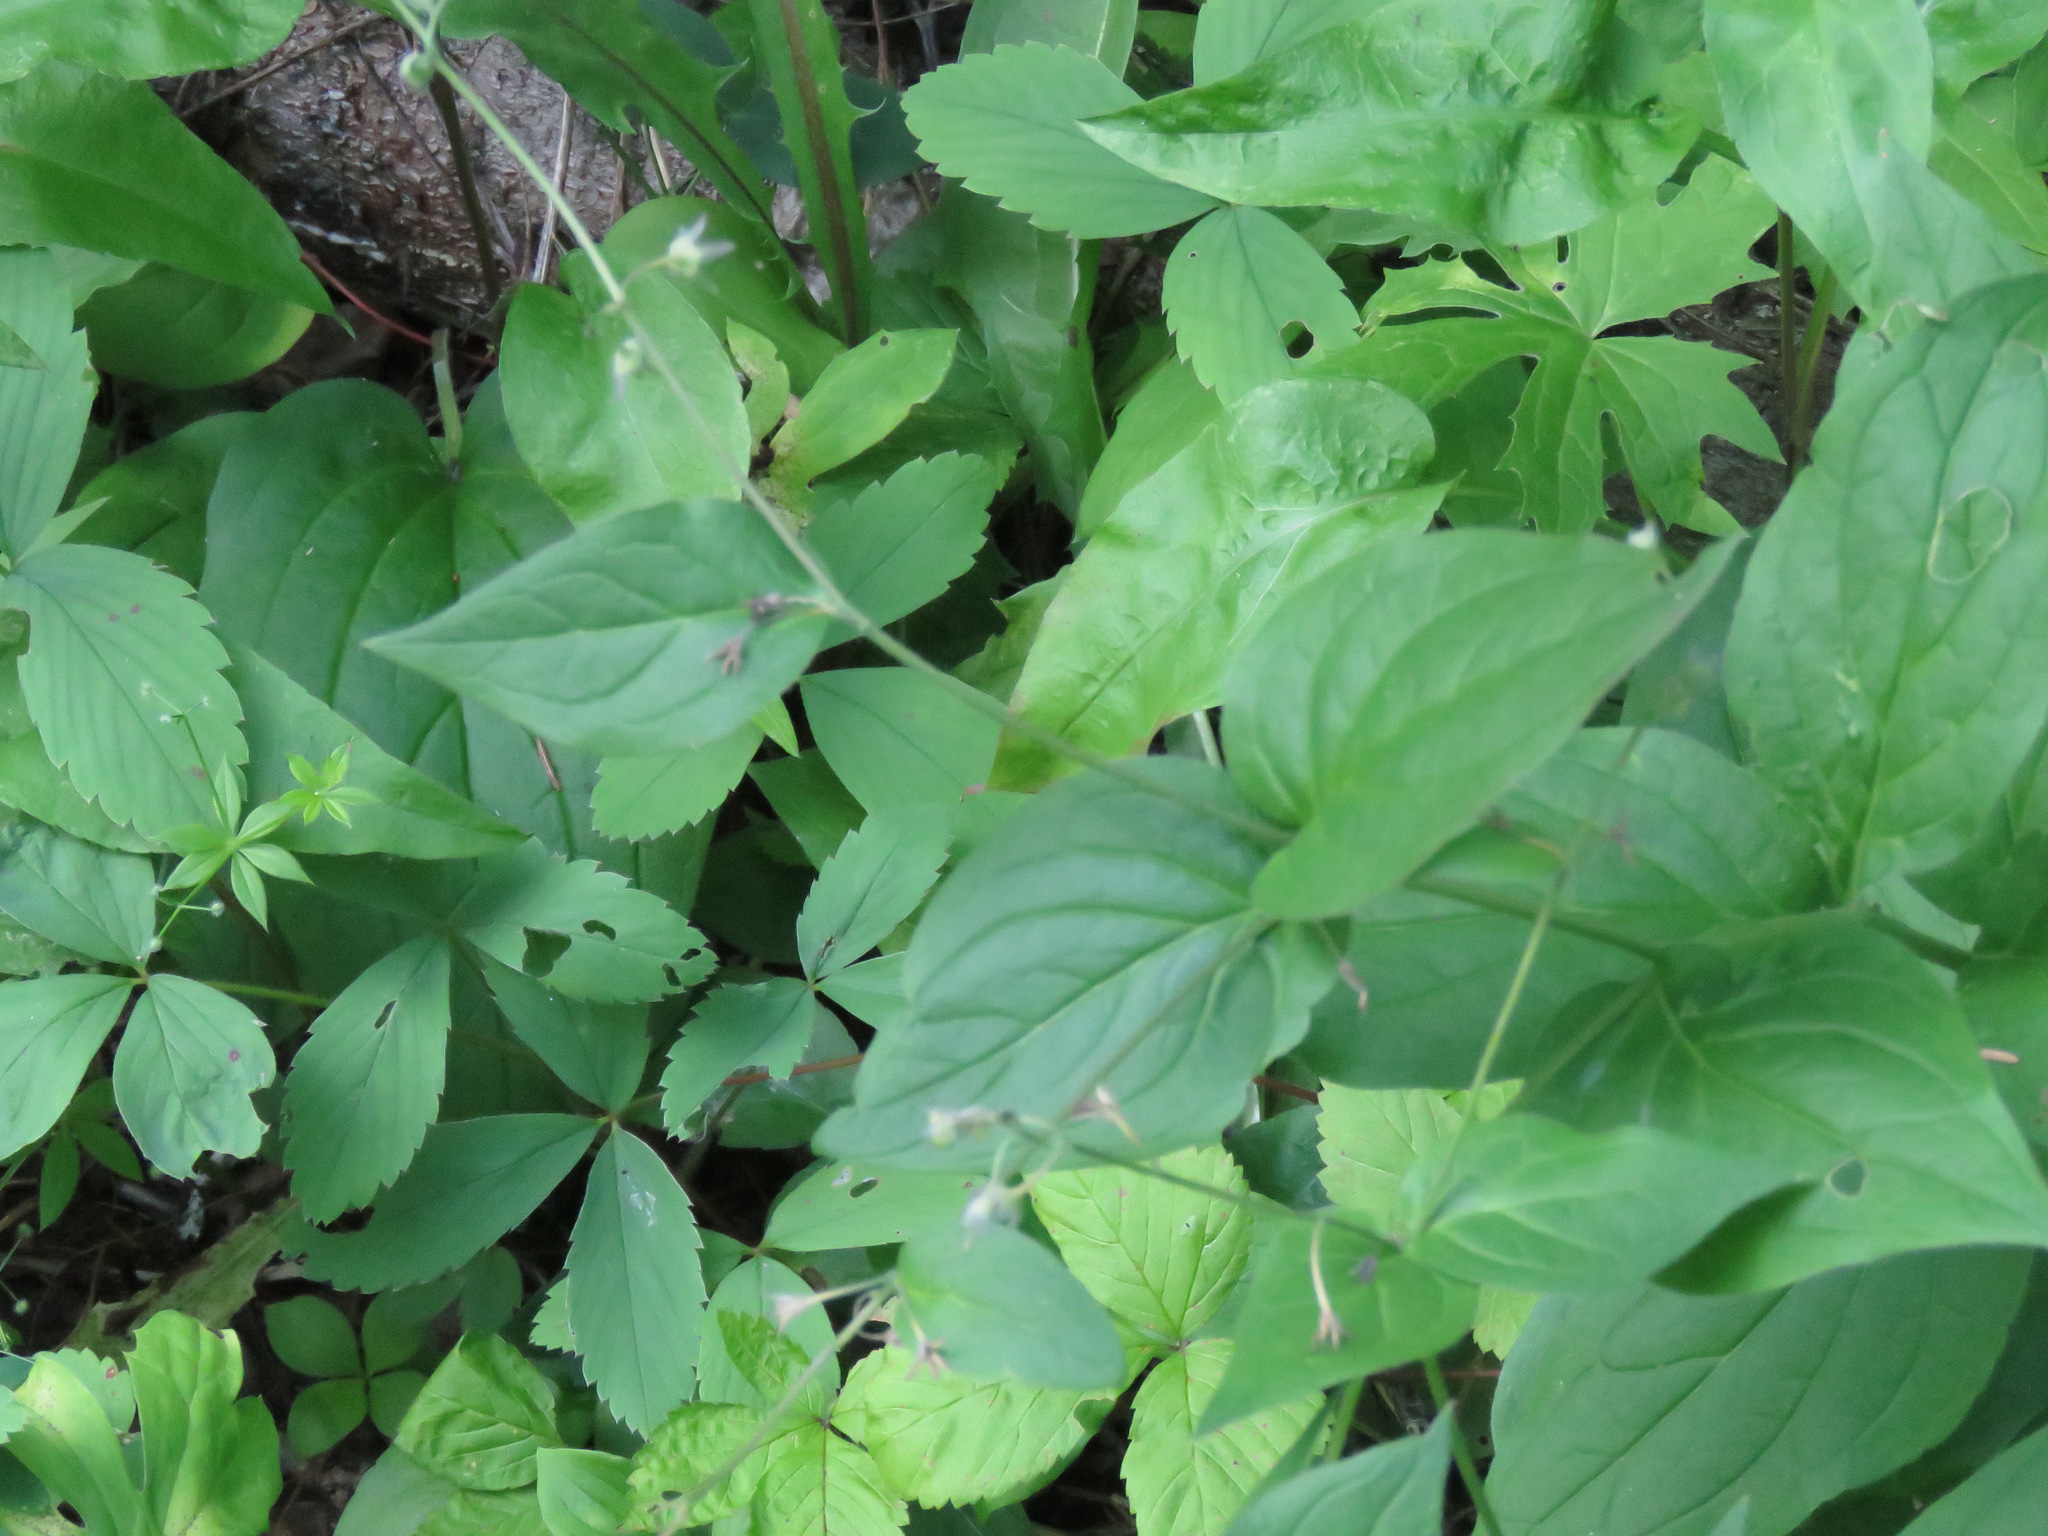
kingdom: Plantae
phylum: Tracheophyta
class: Magnoliopsida
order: Boraginales
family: Boraginaceae
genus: Mertensia
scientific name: Mertensia paniculata
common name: Panicled bluebells
